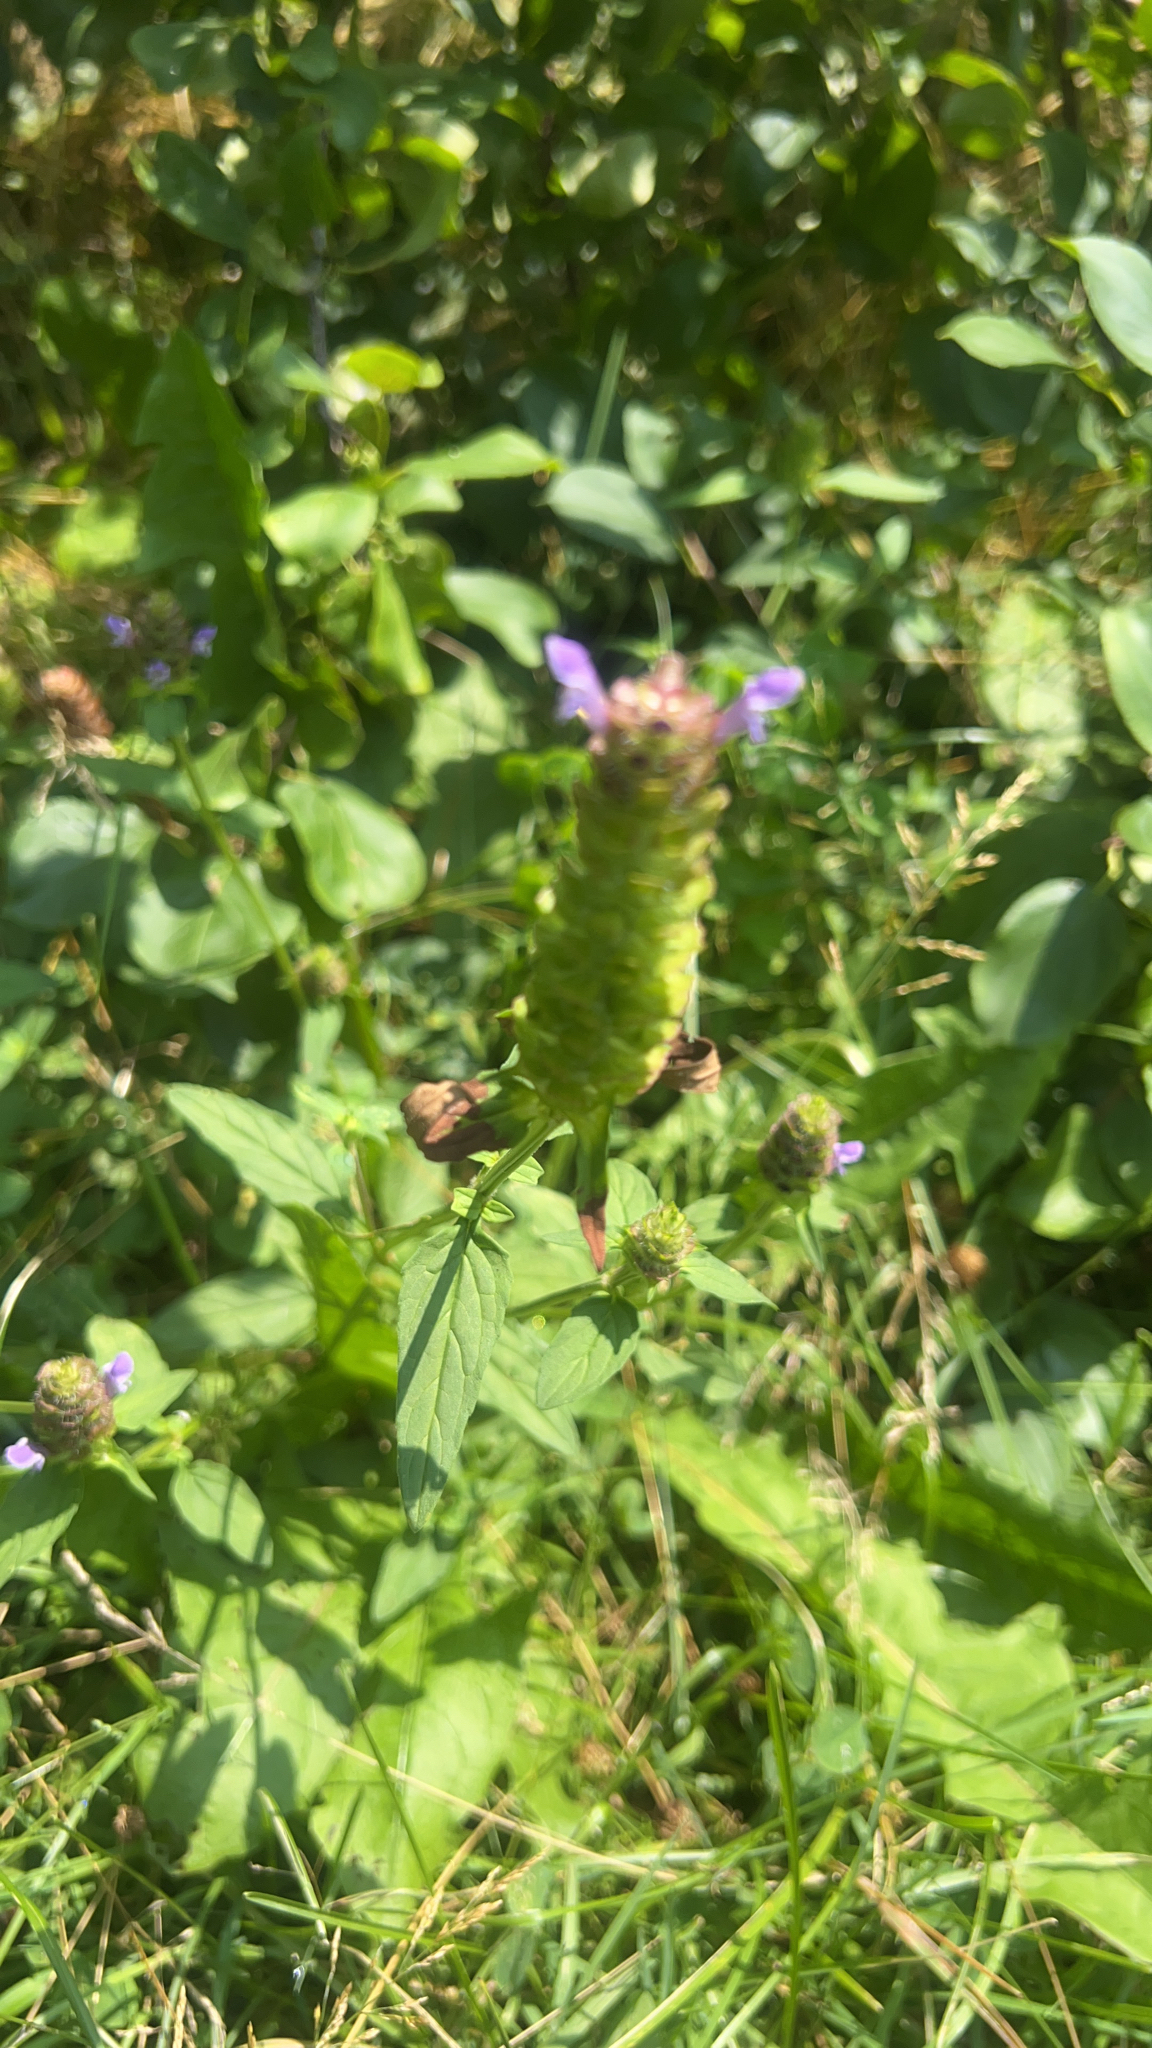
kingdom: Plantae
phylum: Tracheophyta
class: Magnoliopsida
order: Lamiales
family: Lamiaceae
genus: Prunella
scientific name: Prunella vulgaris
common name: Heal-all
